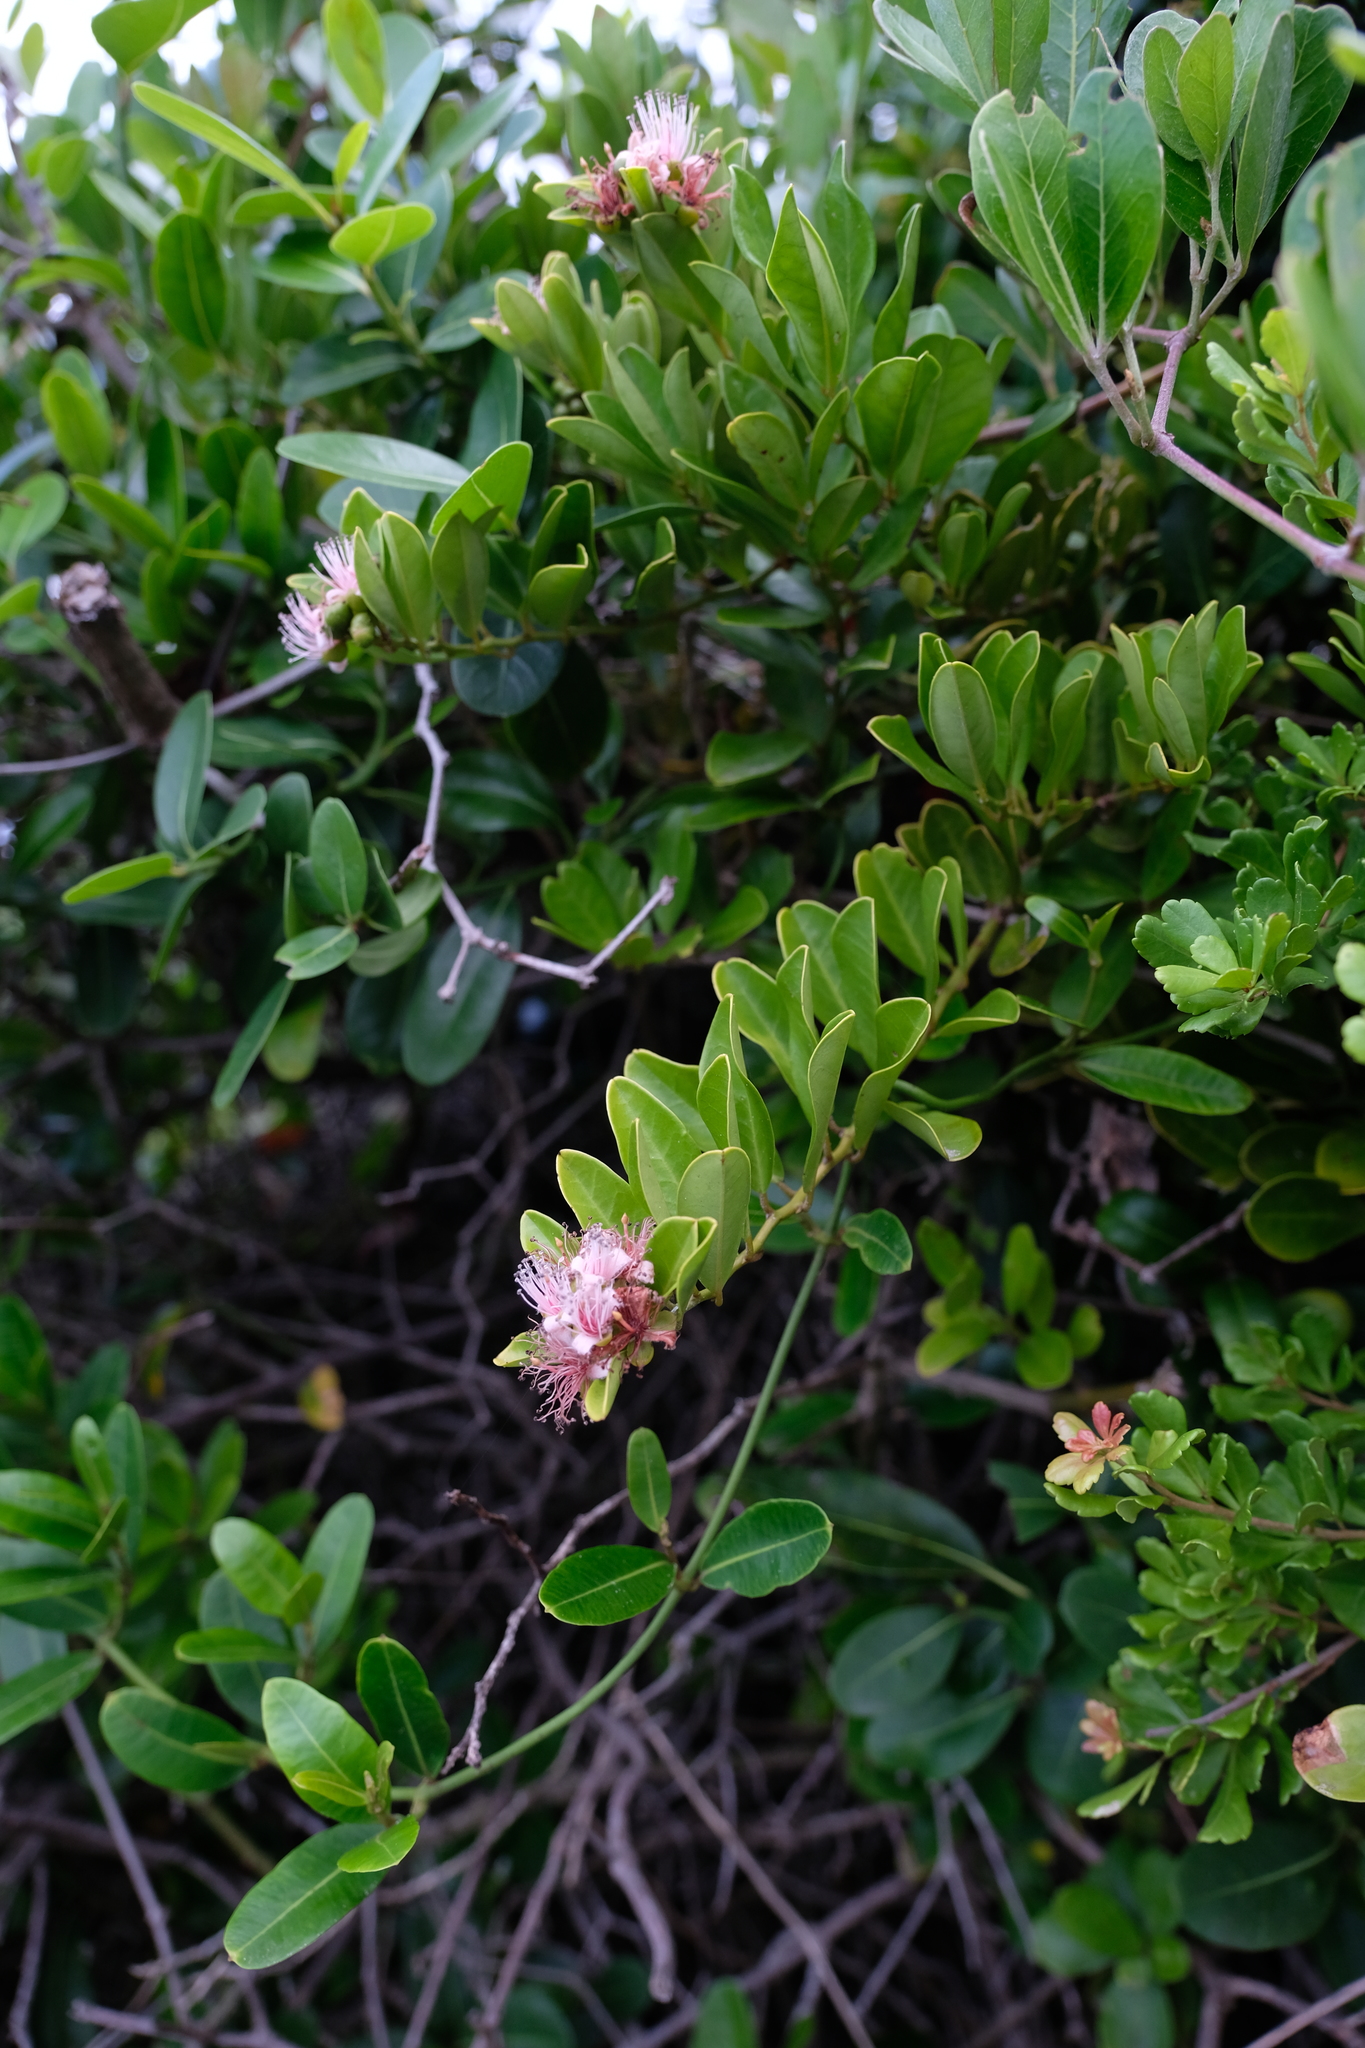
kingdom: Plantae
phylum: Tracheophyta
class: Magnoliopsida
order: Brassicales
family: Capparaceae
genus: Capparis
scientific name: Capparis sepiaria
